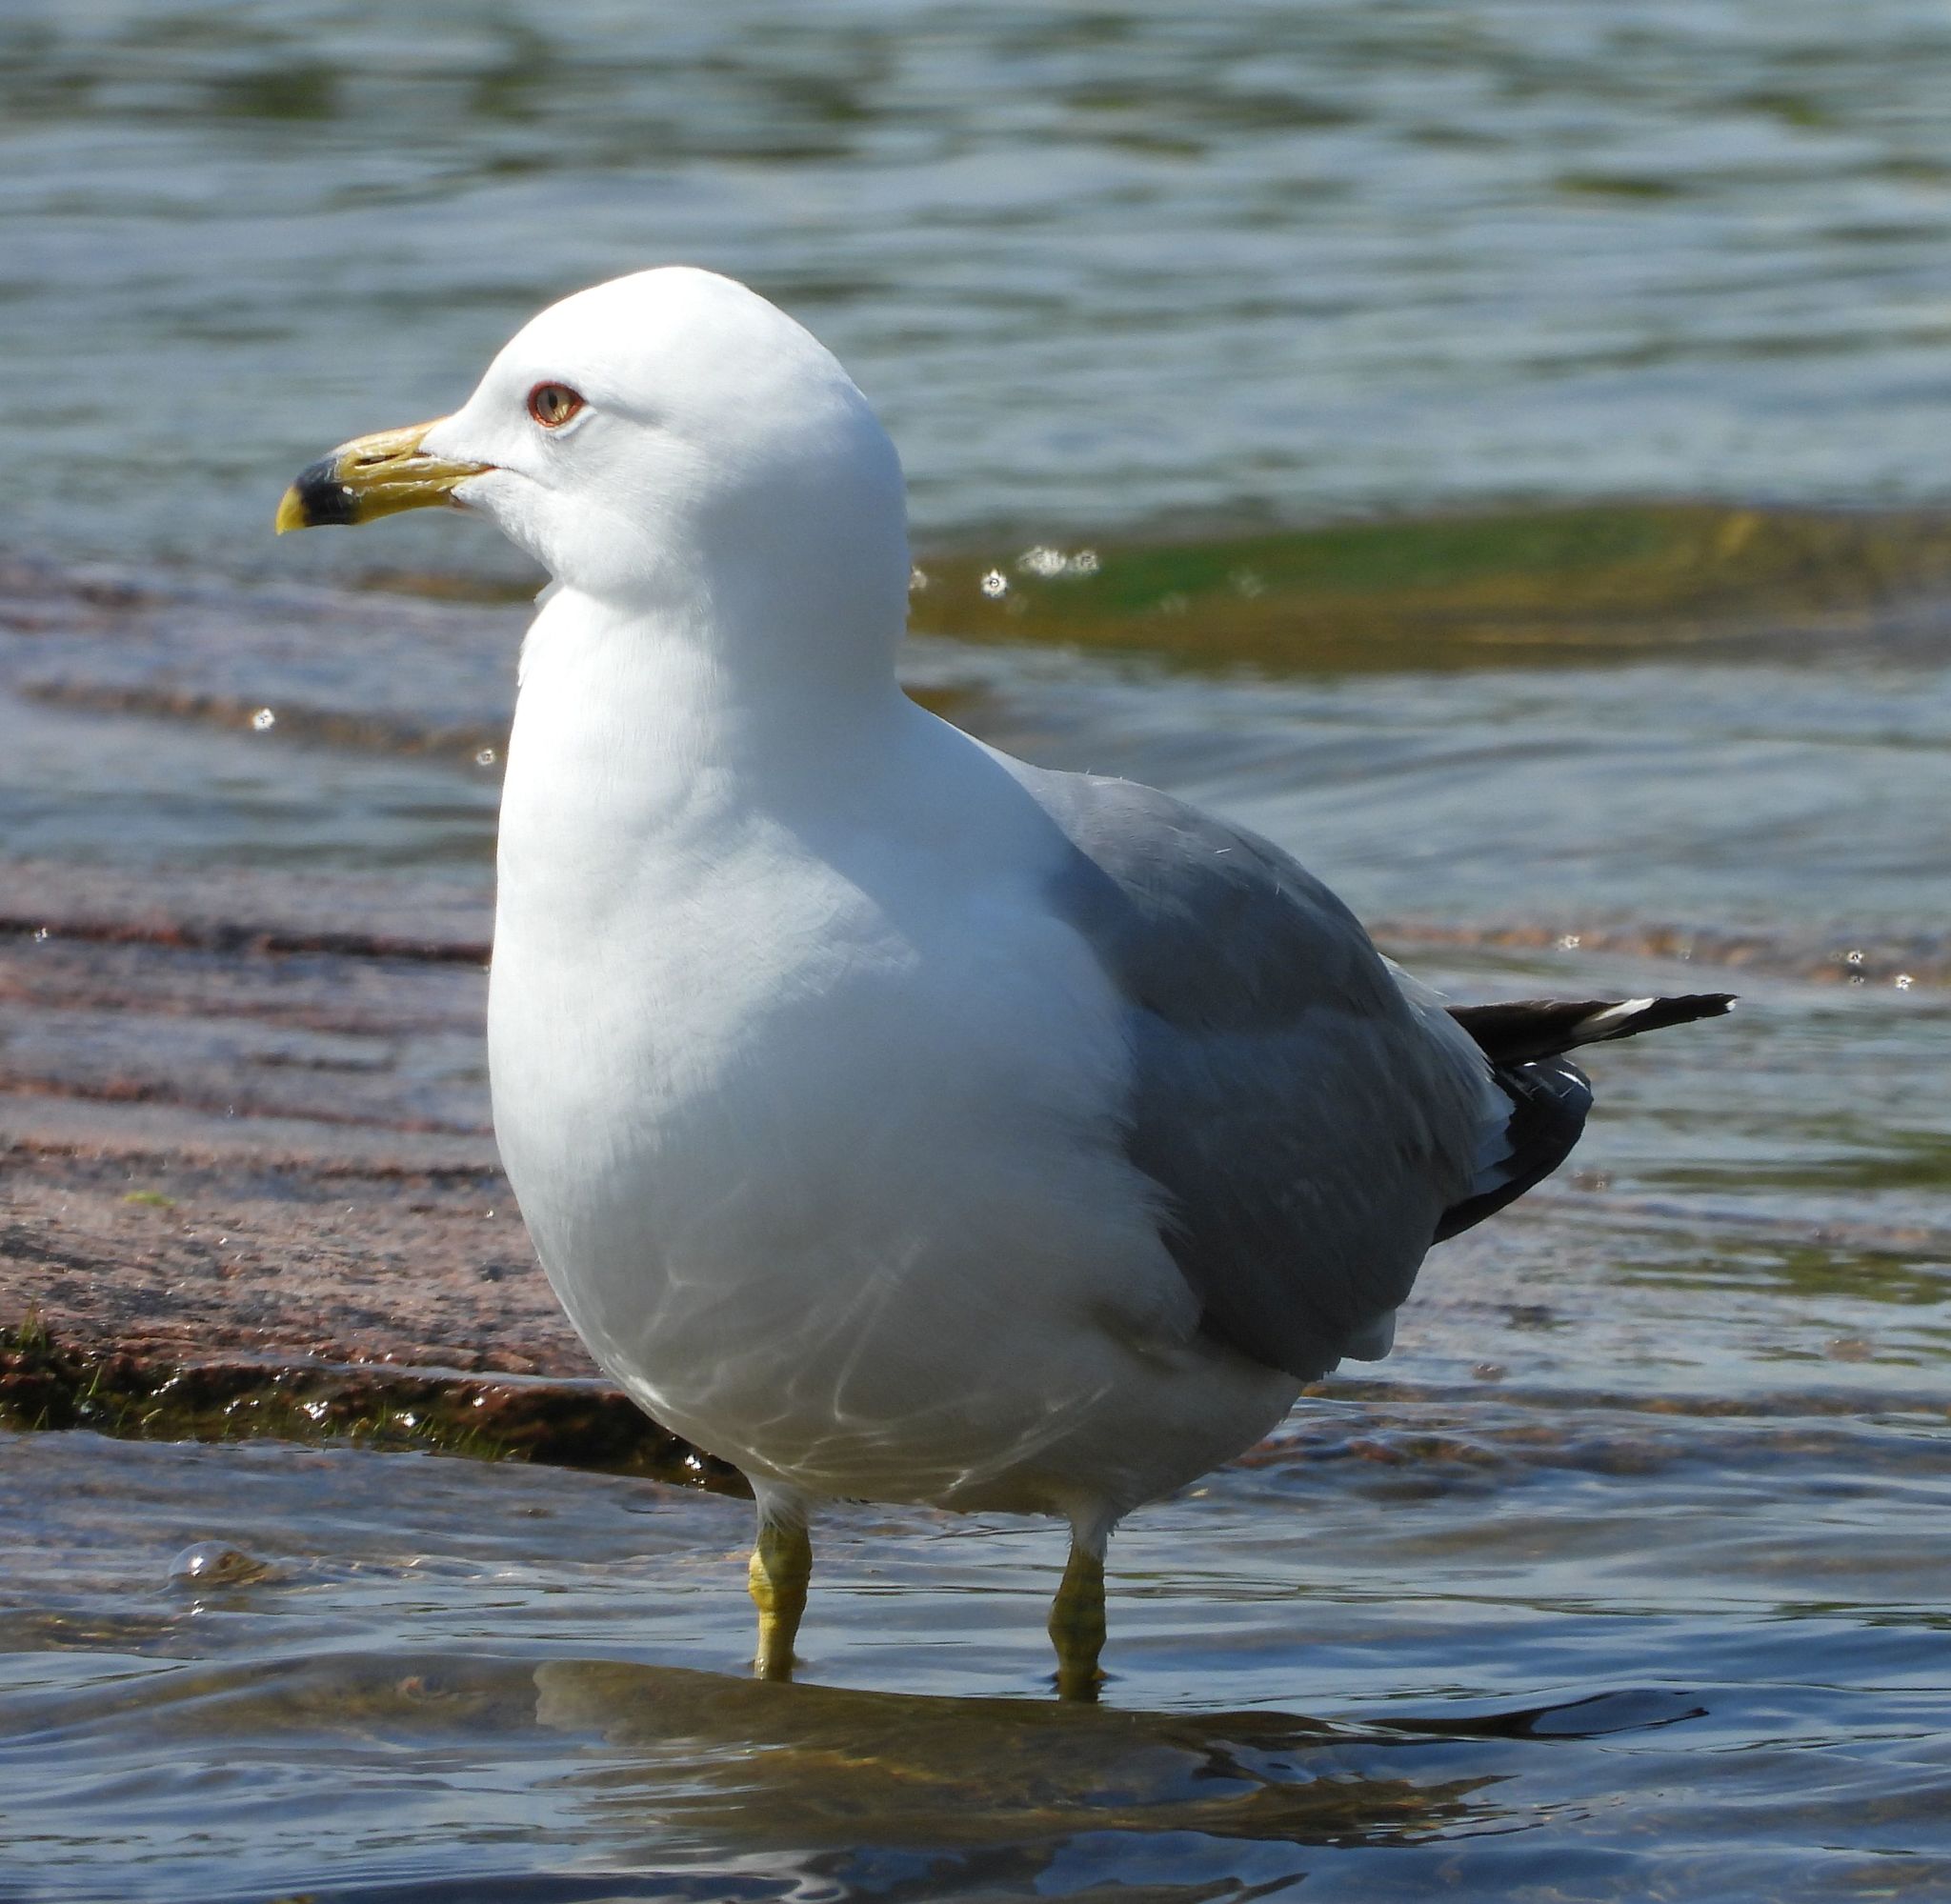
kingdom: Animalia
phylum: Chordata
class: Aves
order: Charadriiformes
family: Laridae
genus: Larus
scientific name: Larus delawarensis
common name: Ring-billed gull
